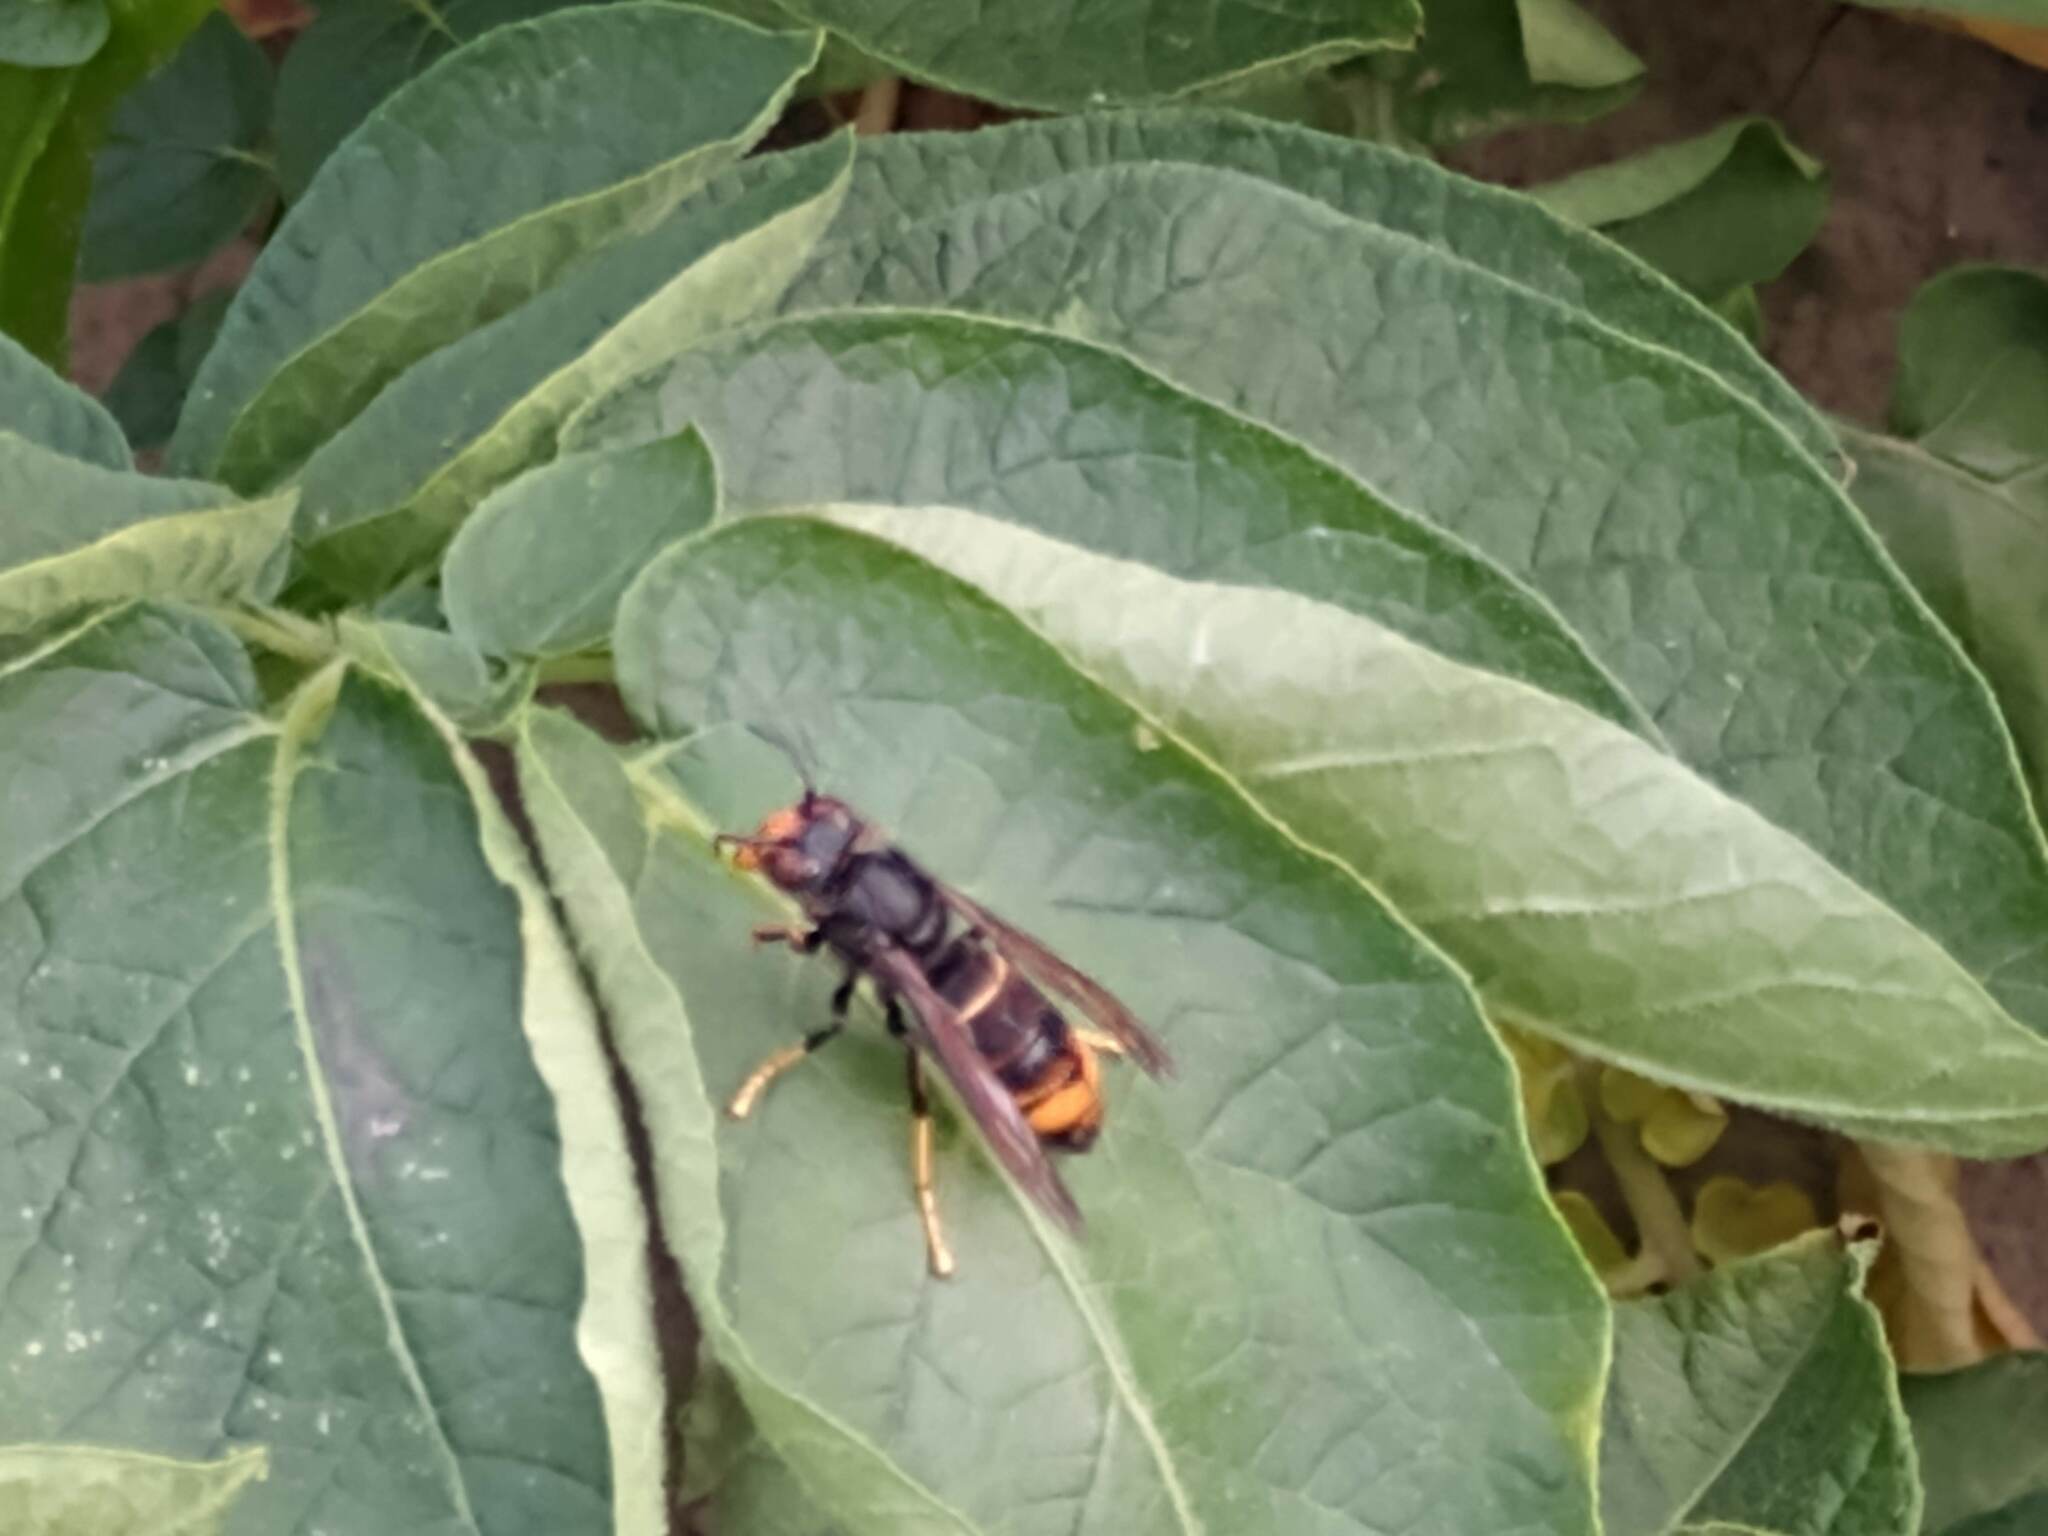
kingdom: Animalia
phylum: Arthropoda
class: Insecta
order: Hymenoptera
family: Vespidae
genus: Vespa
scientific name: Vespa velutina
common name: Asian hornet
